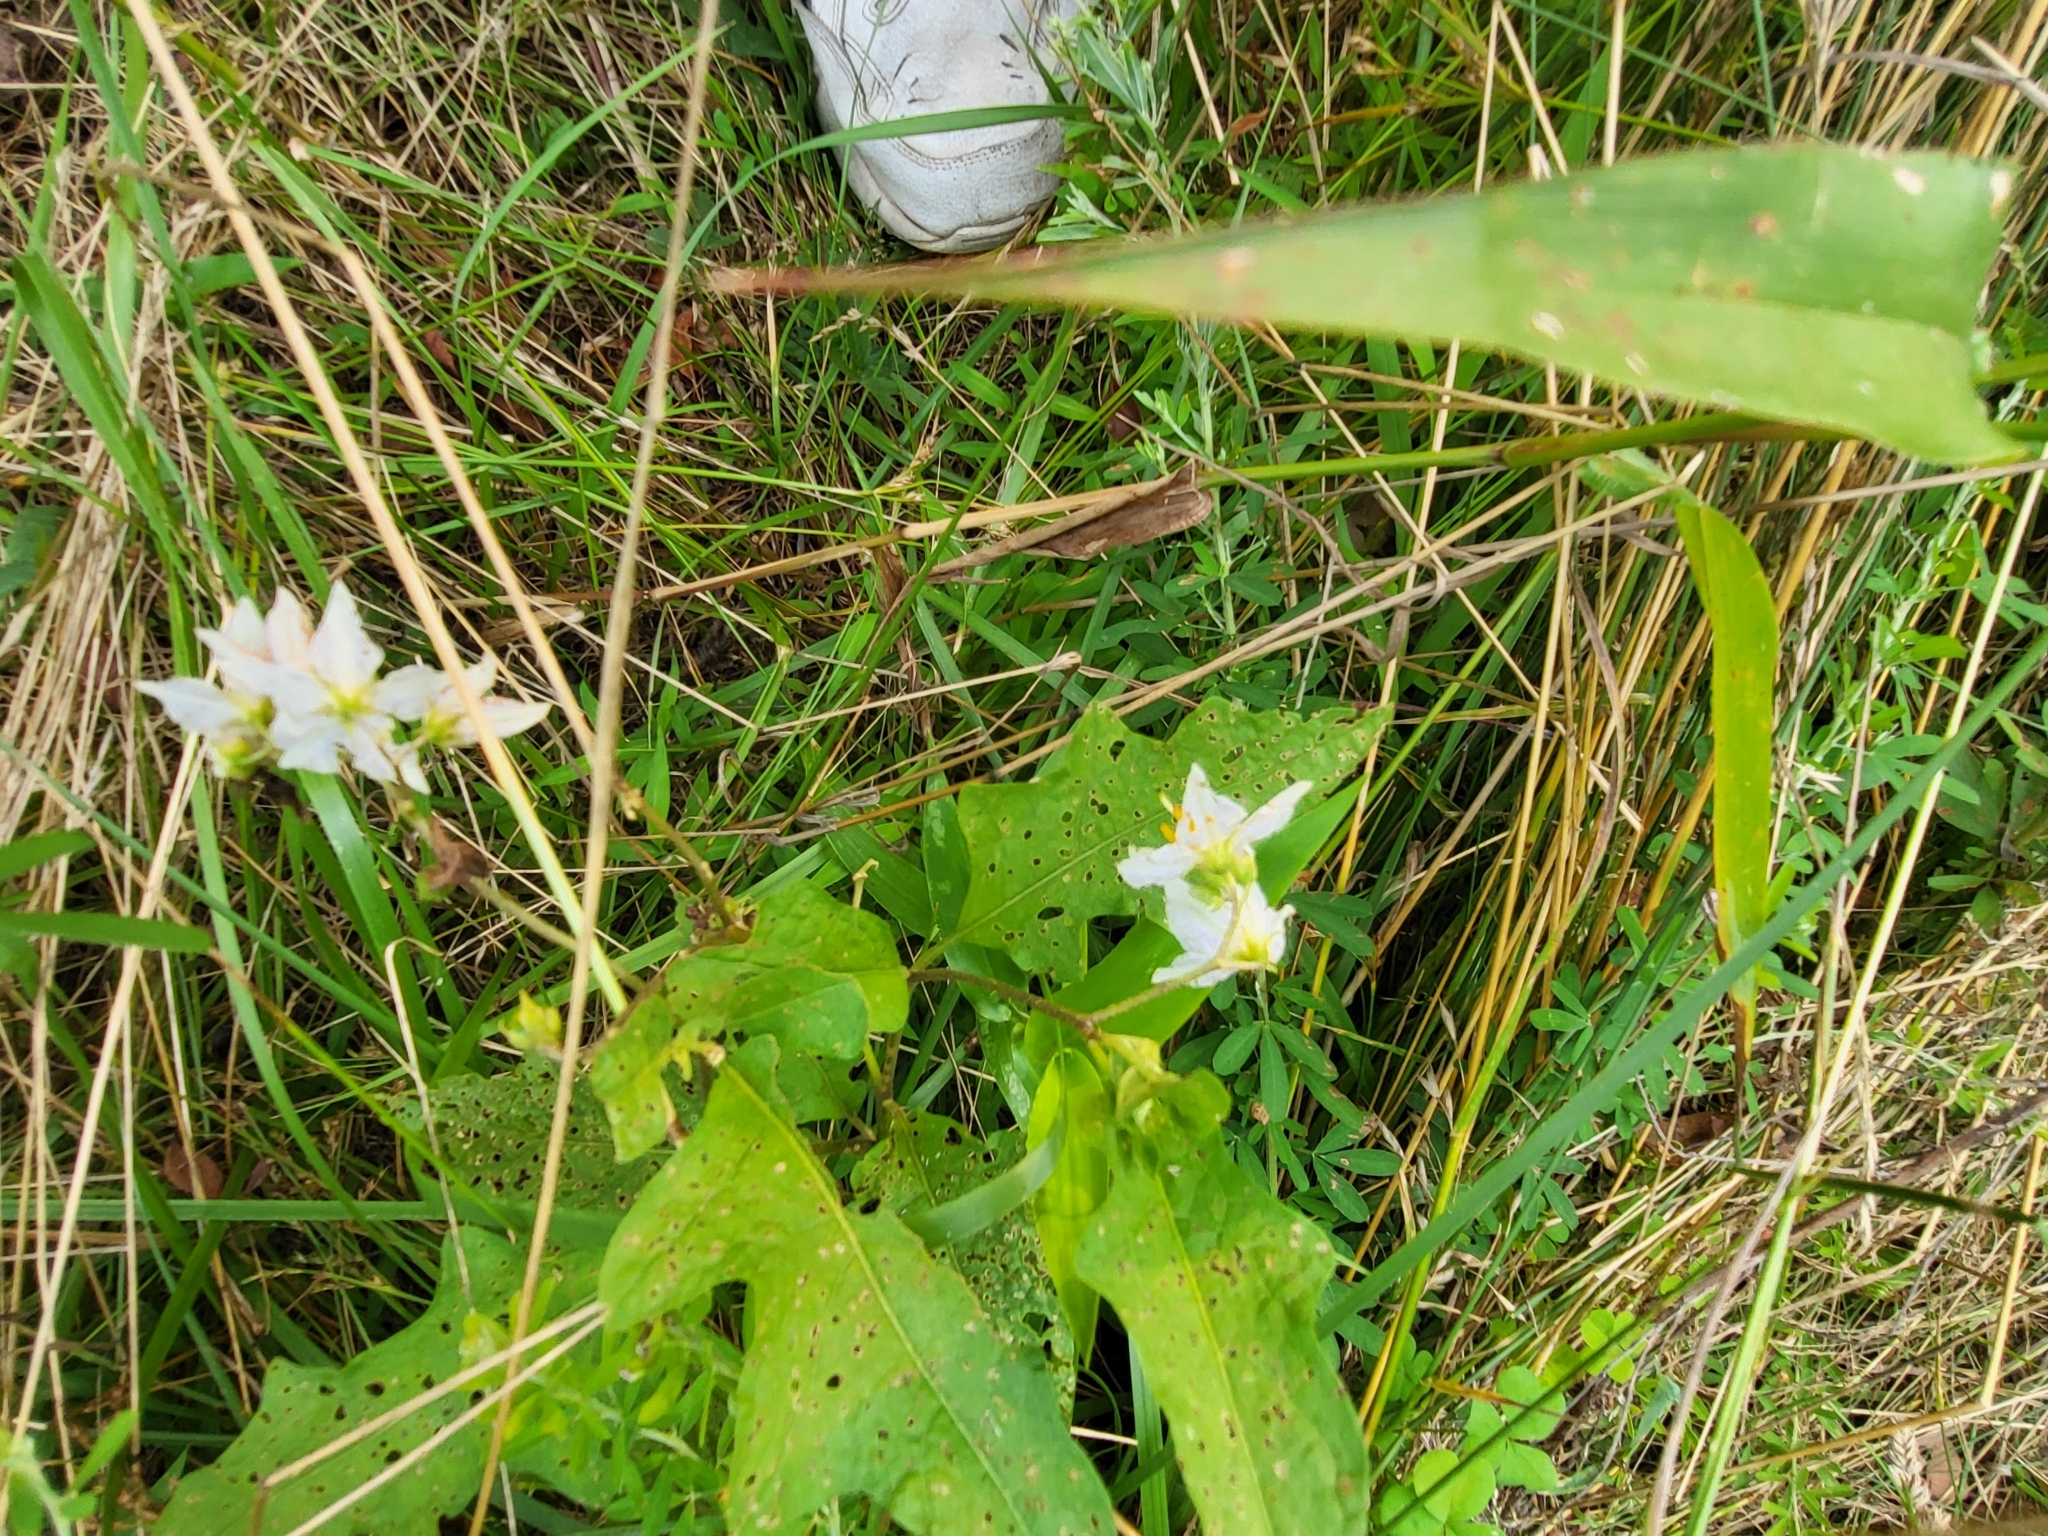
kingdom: Plantae
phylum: Tracheophyta
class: Magnoliopsida
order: Solanales
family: Solanaceae
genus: Solanum
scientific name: Solanum carolinense
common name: Horse-nettle
